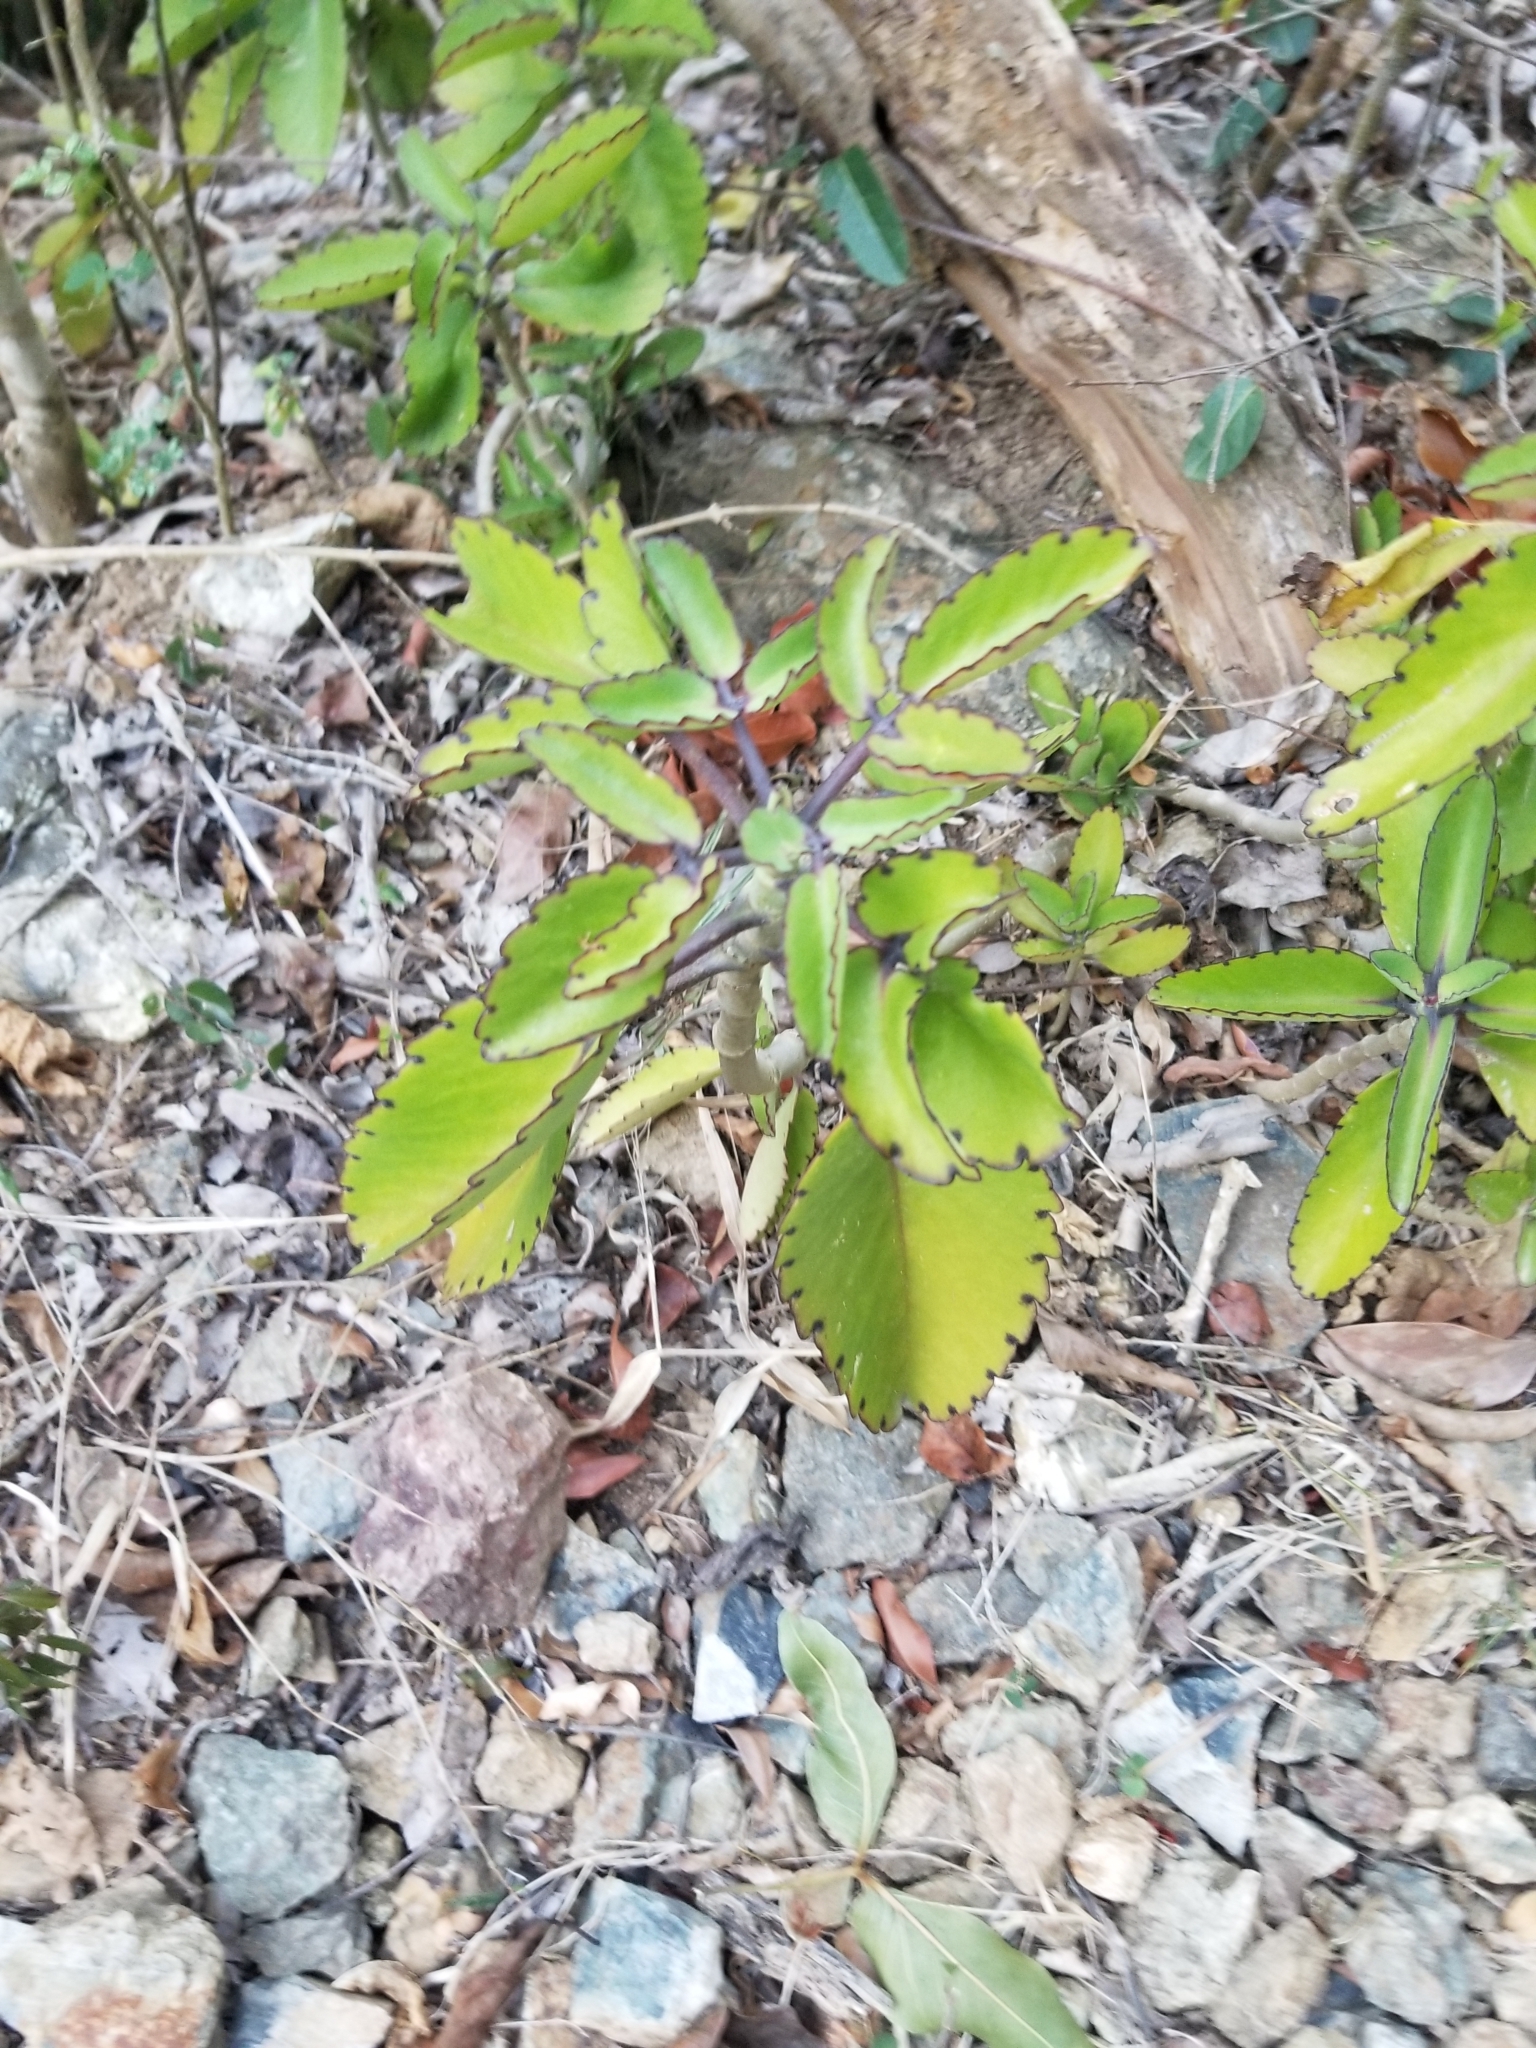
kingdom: Plantae
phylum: Tracheophyta
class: Magnoliopsida
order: Saxifragales
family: Crassulaceae
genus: Kalanchoe
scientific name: Kalanchoe pinnata
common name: Cathedral bells
